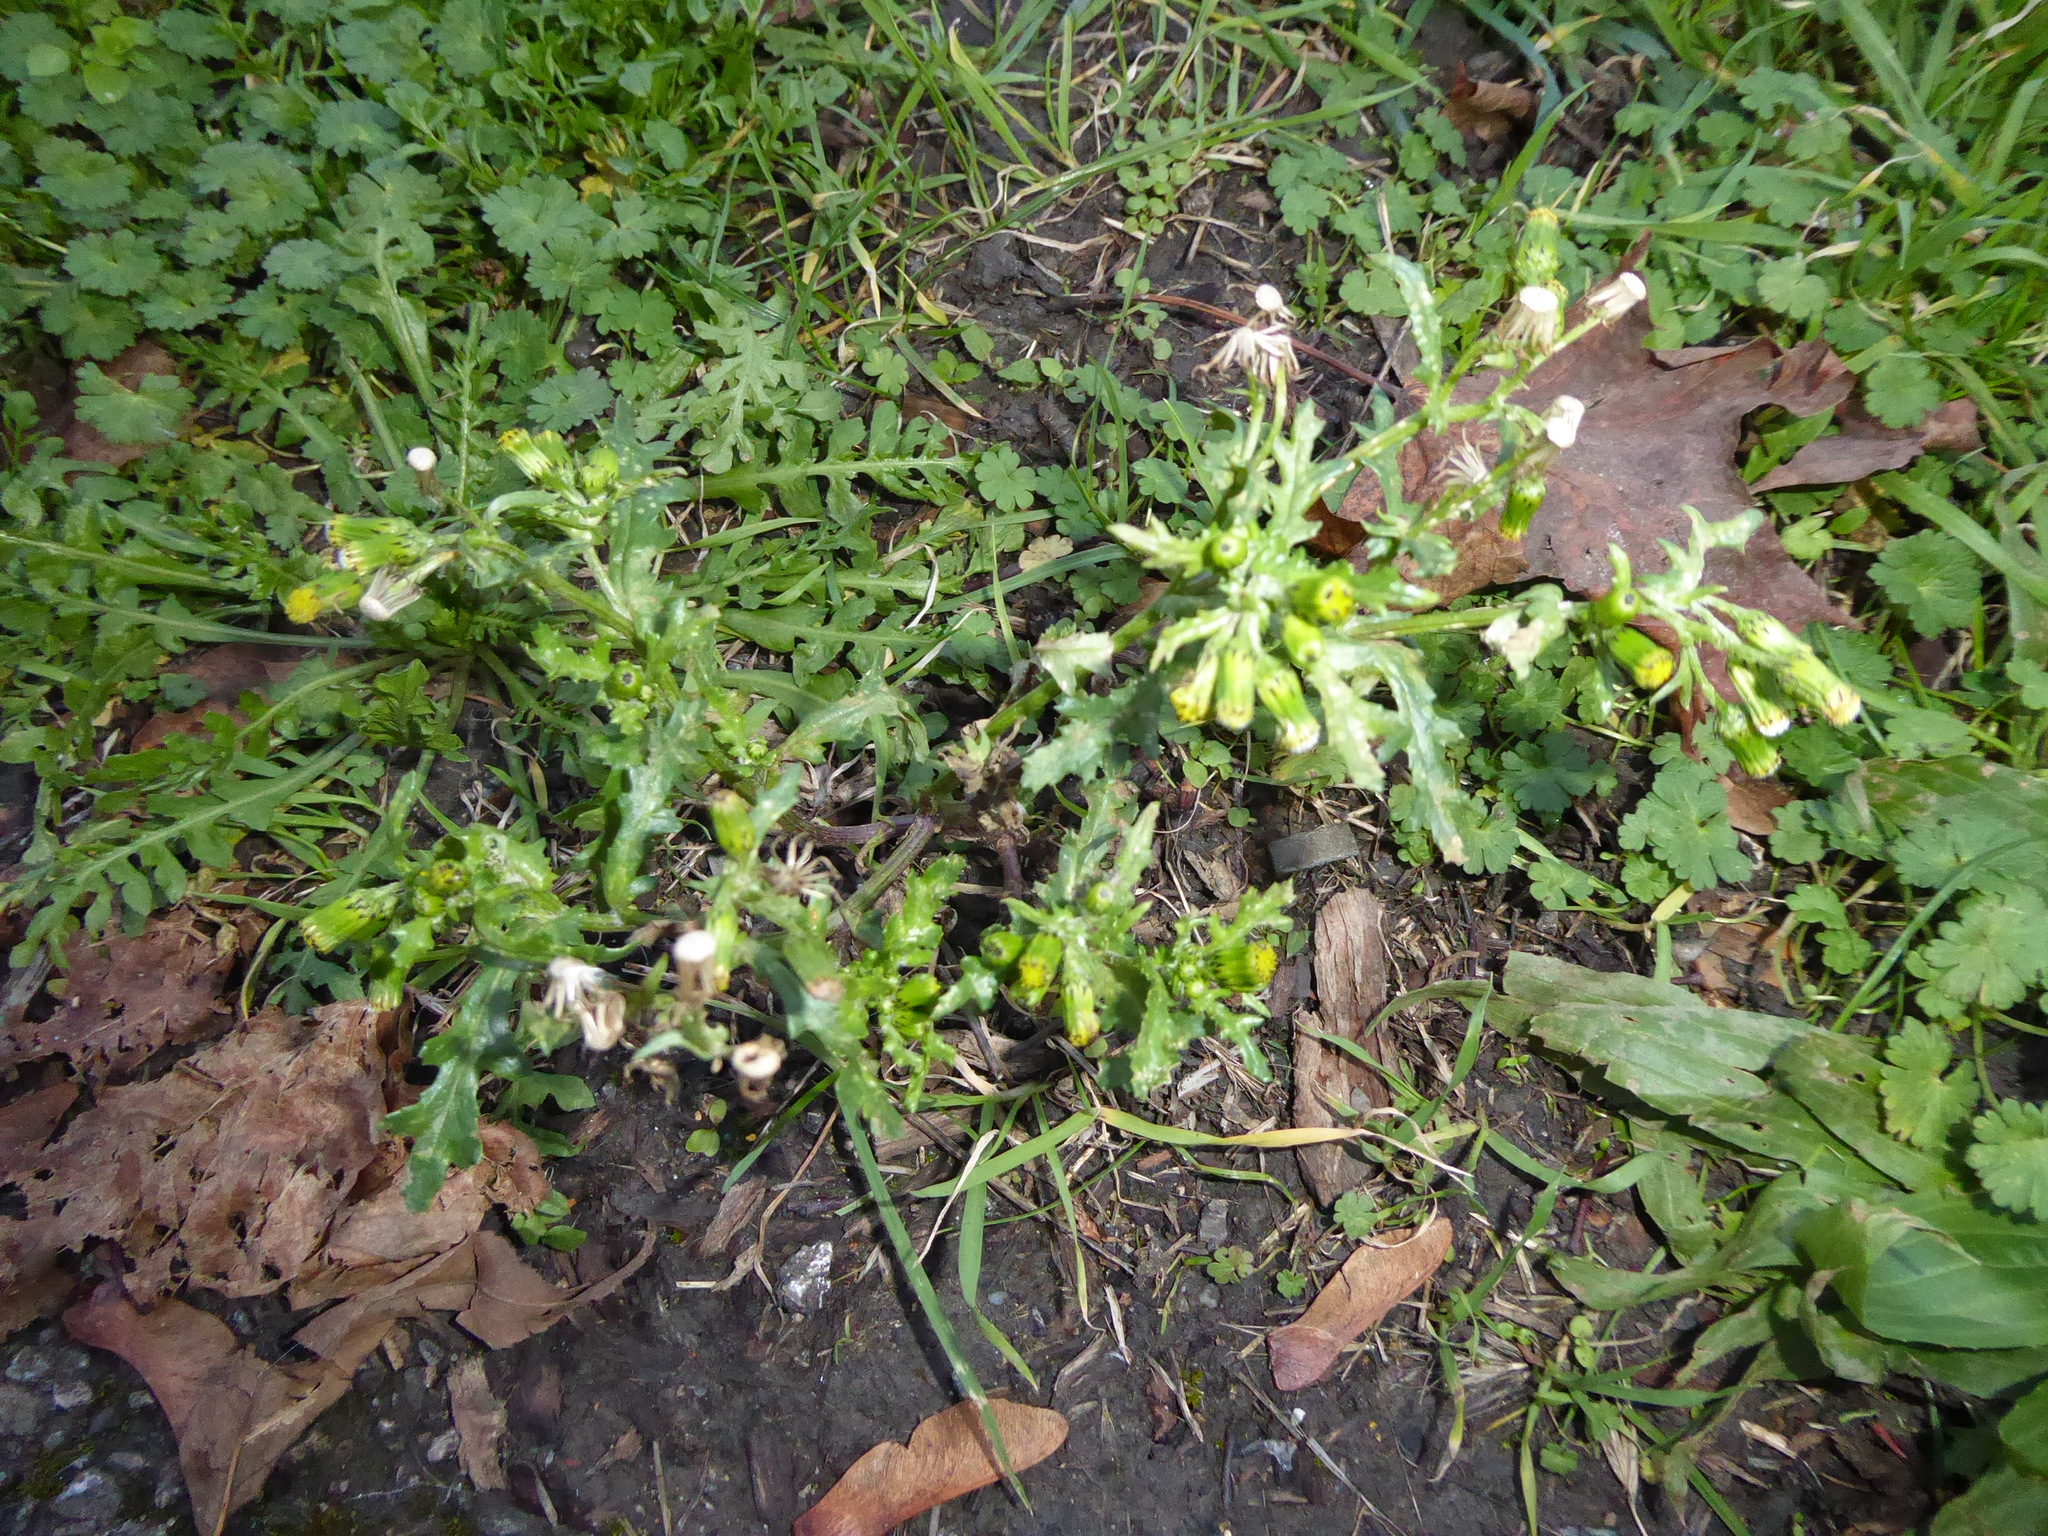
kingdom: Plantae
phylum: Tracheophyta
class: Magnoliopsida
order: Asterales
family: Asteraceae
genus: Senecio
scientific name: Senecio vulgaris
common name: Old-man-in-the-spring
